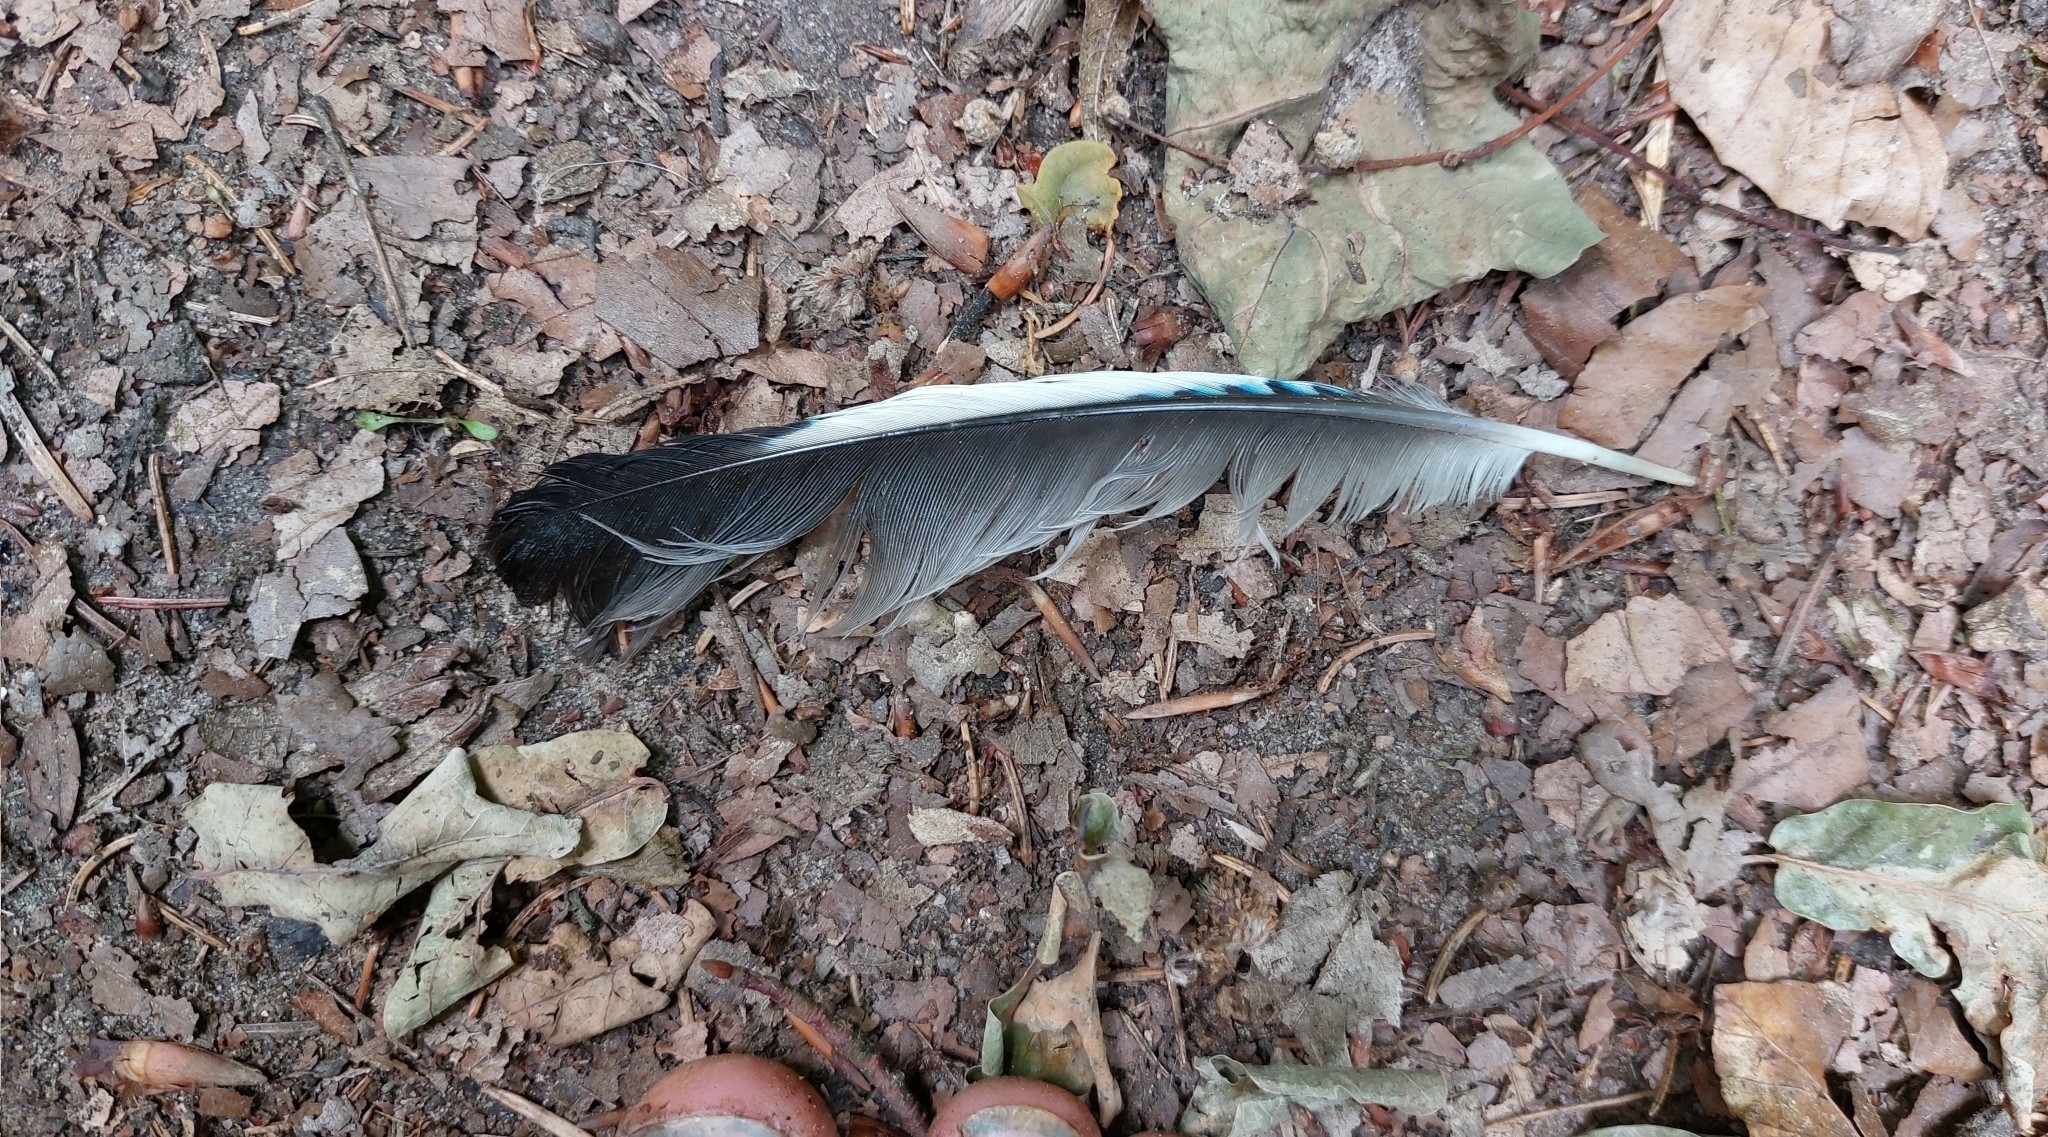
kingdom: Animalia
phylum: Chordata
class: Aves
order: Passeriformes
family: Corvidae
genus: Garrulus
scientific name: Garrulus glandarius
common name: Eurasian jay
